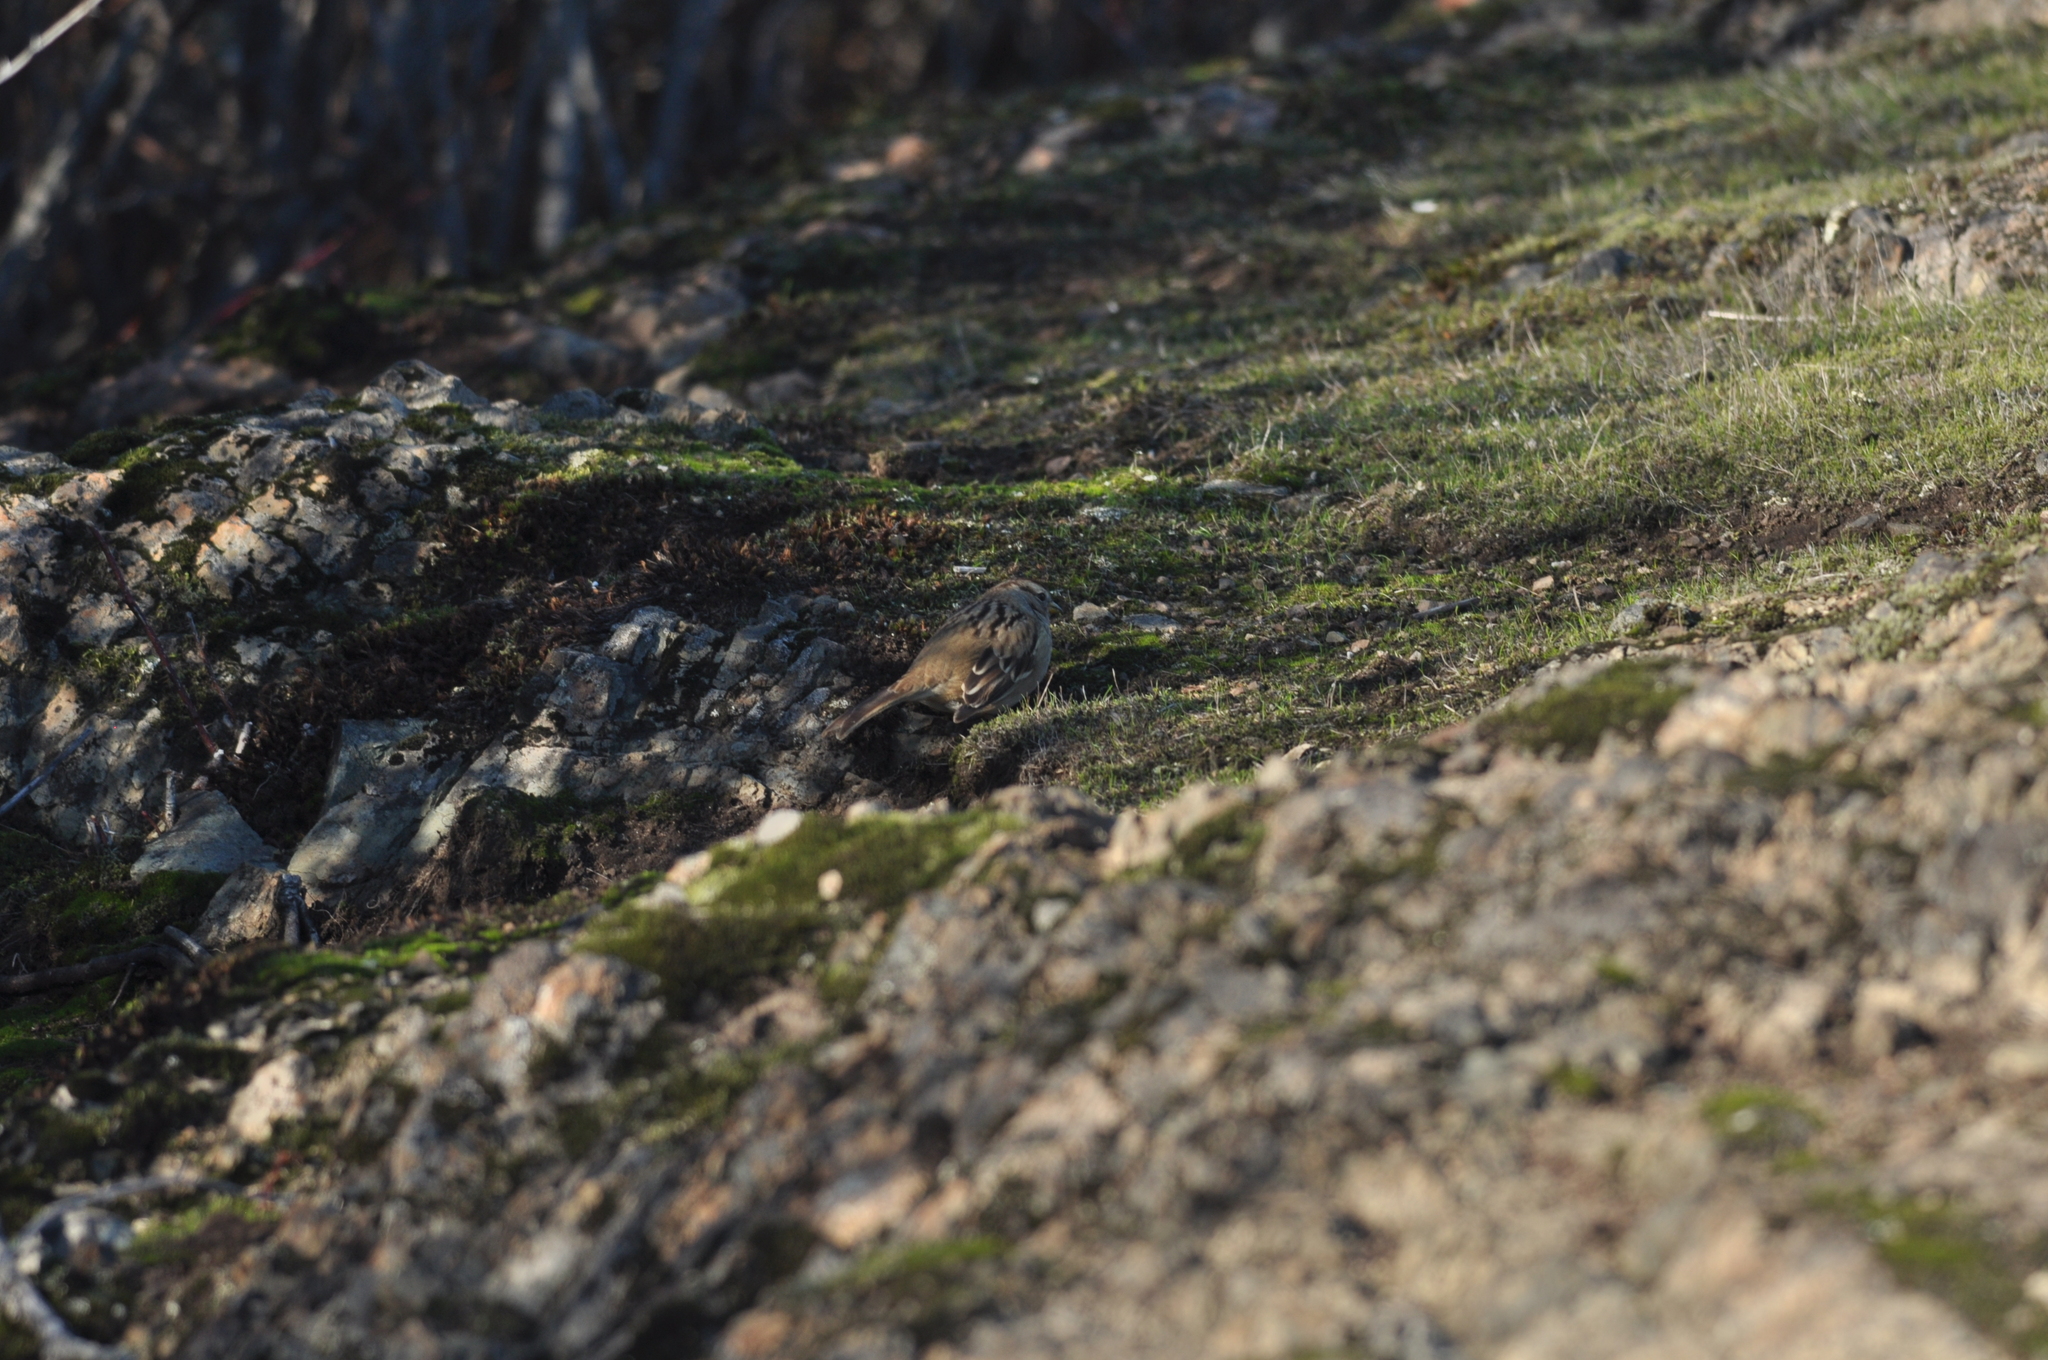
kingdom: Animalia
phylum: Chordata
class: Aves
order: Passeriformes
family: Passerellidae
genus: Zonotrichia
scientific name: Zonotrichia leucophrys
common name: White-crowned sparrow
